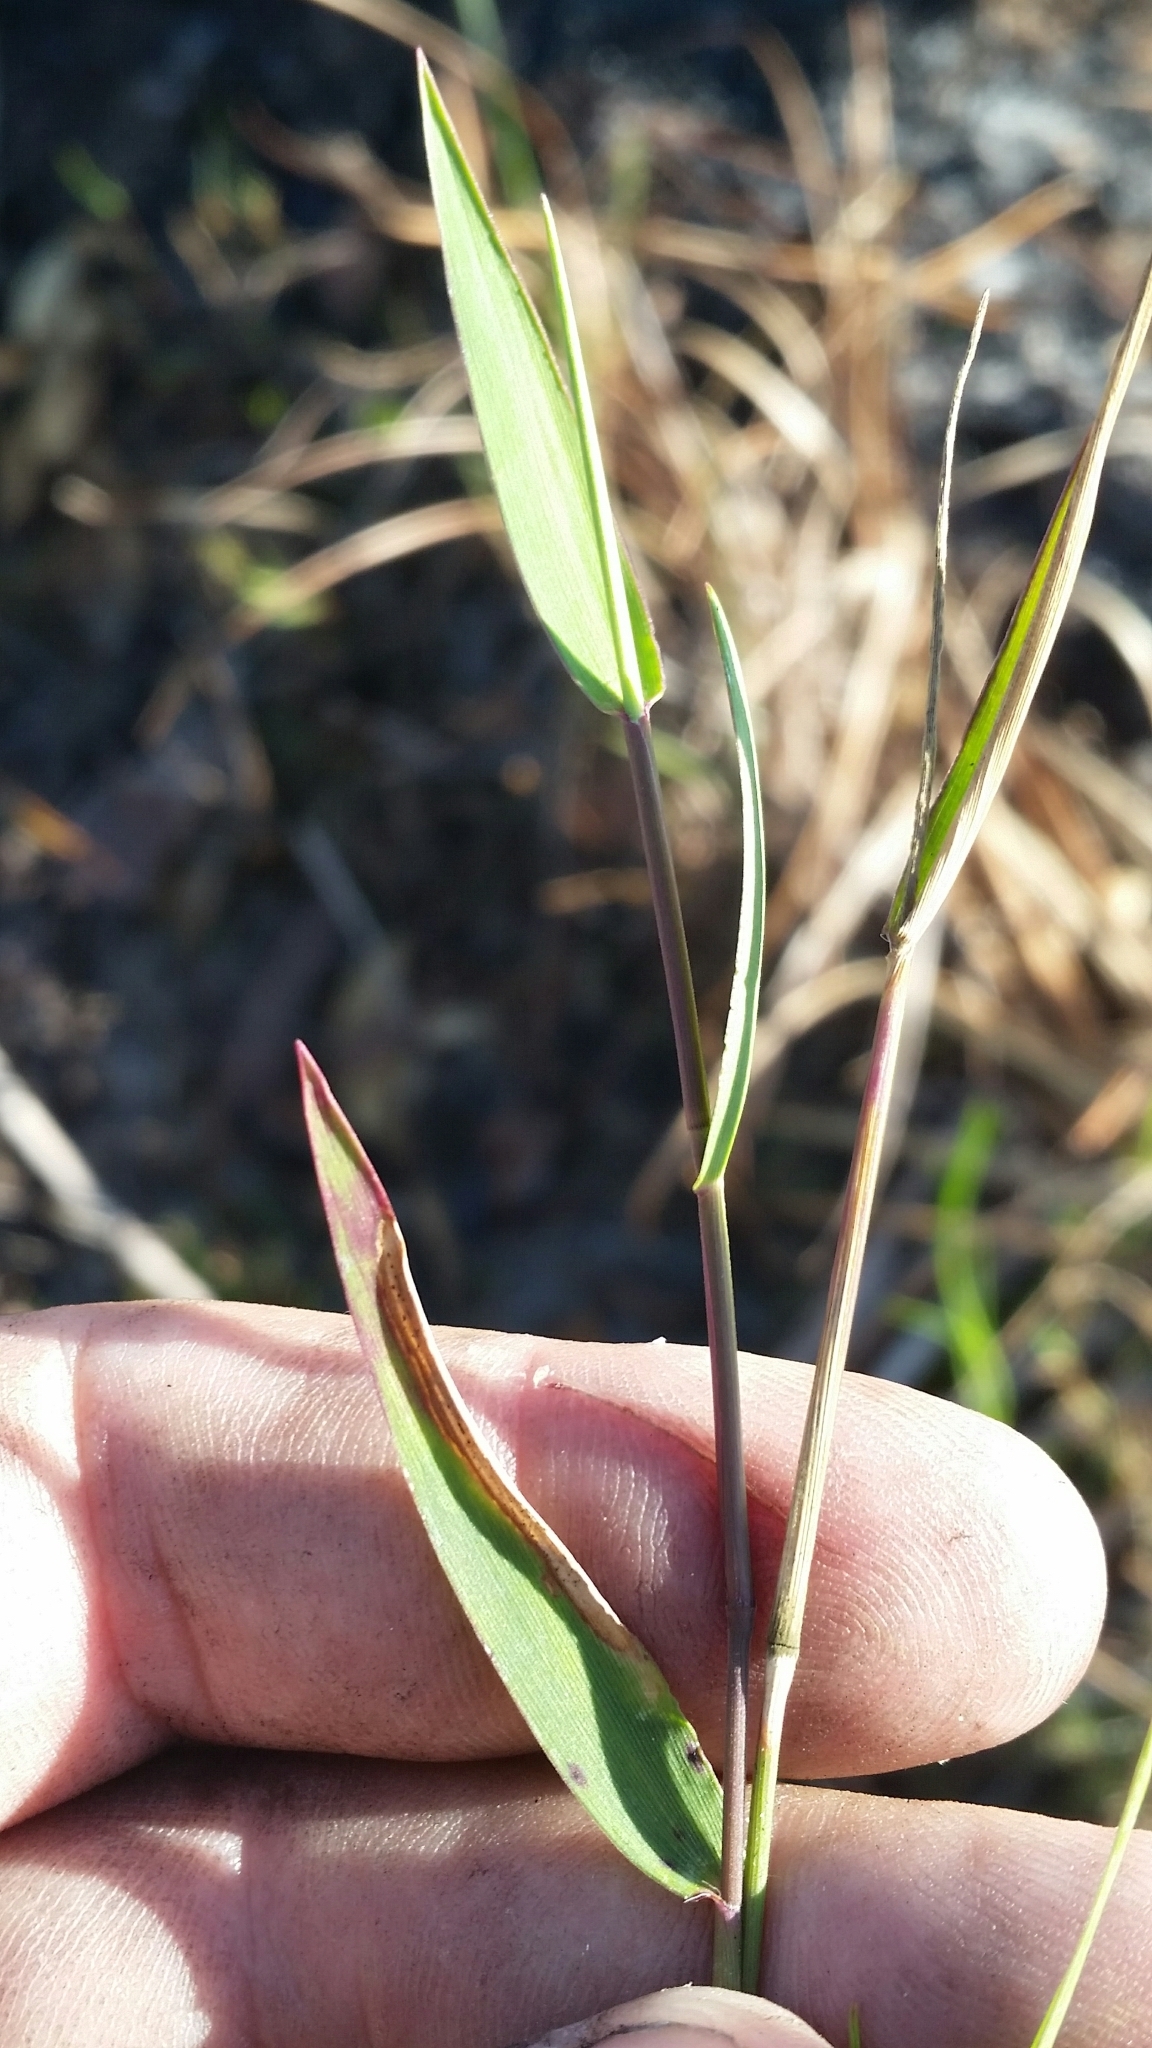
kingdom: Plantae
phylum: Tracheophyta
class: Liliopsida
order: Poales
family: Poaceae
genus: Dichanthelium
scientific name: Dichanthelium portoricense
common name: American panicgrass
